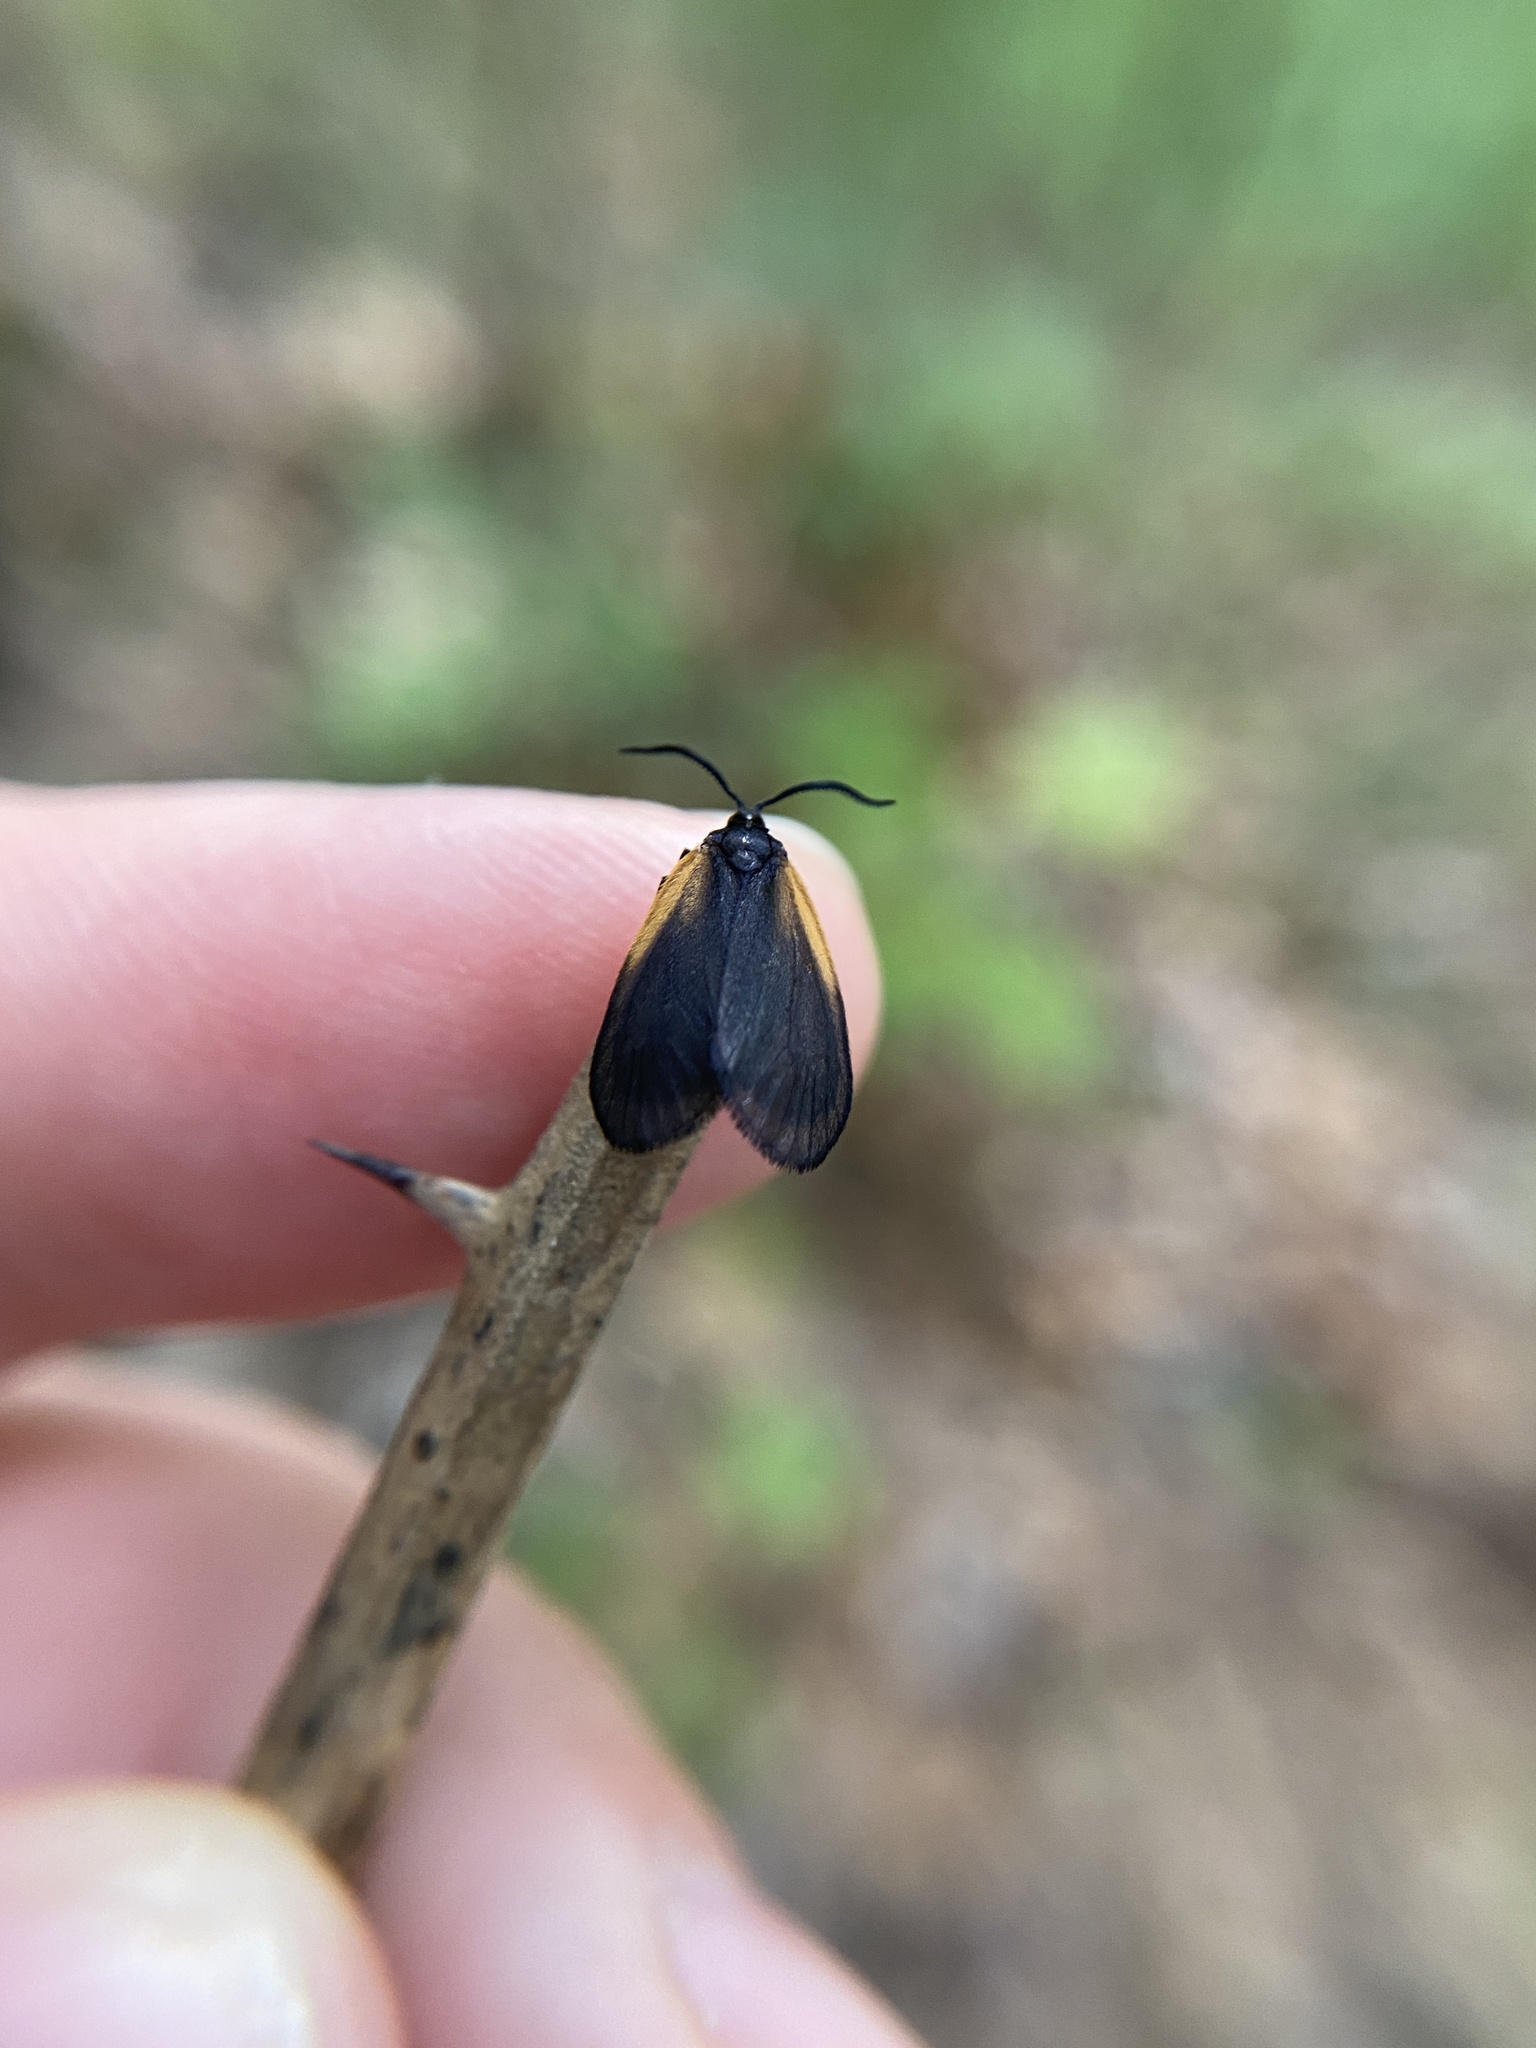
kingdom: Animalia
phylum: Arthropoda
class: Insecta
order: Lepidoptera
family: Zygaenidae
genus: Malthaca
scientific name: Malthaca dimidiata
